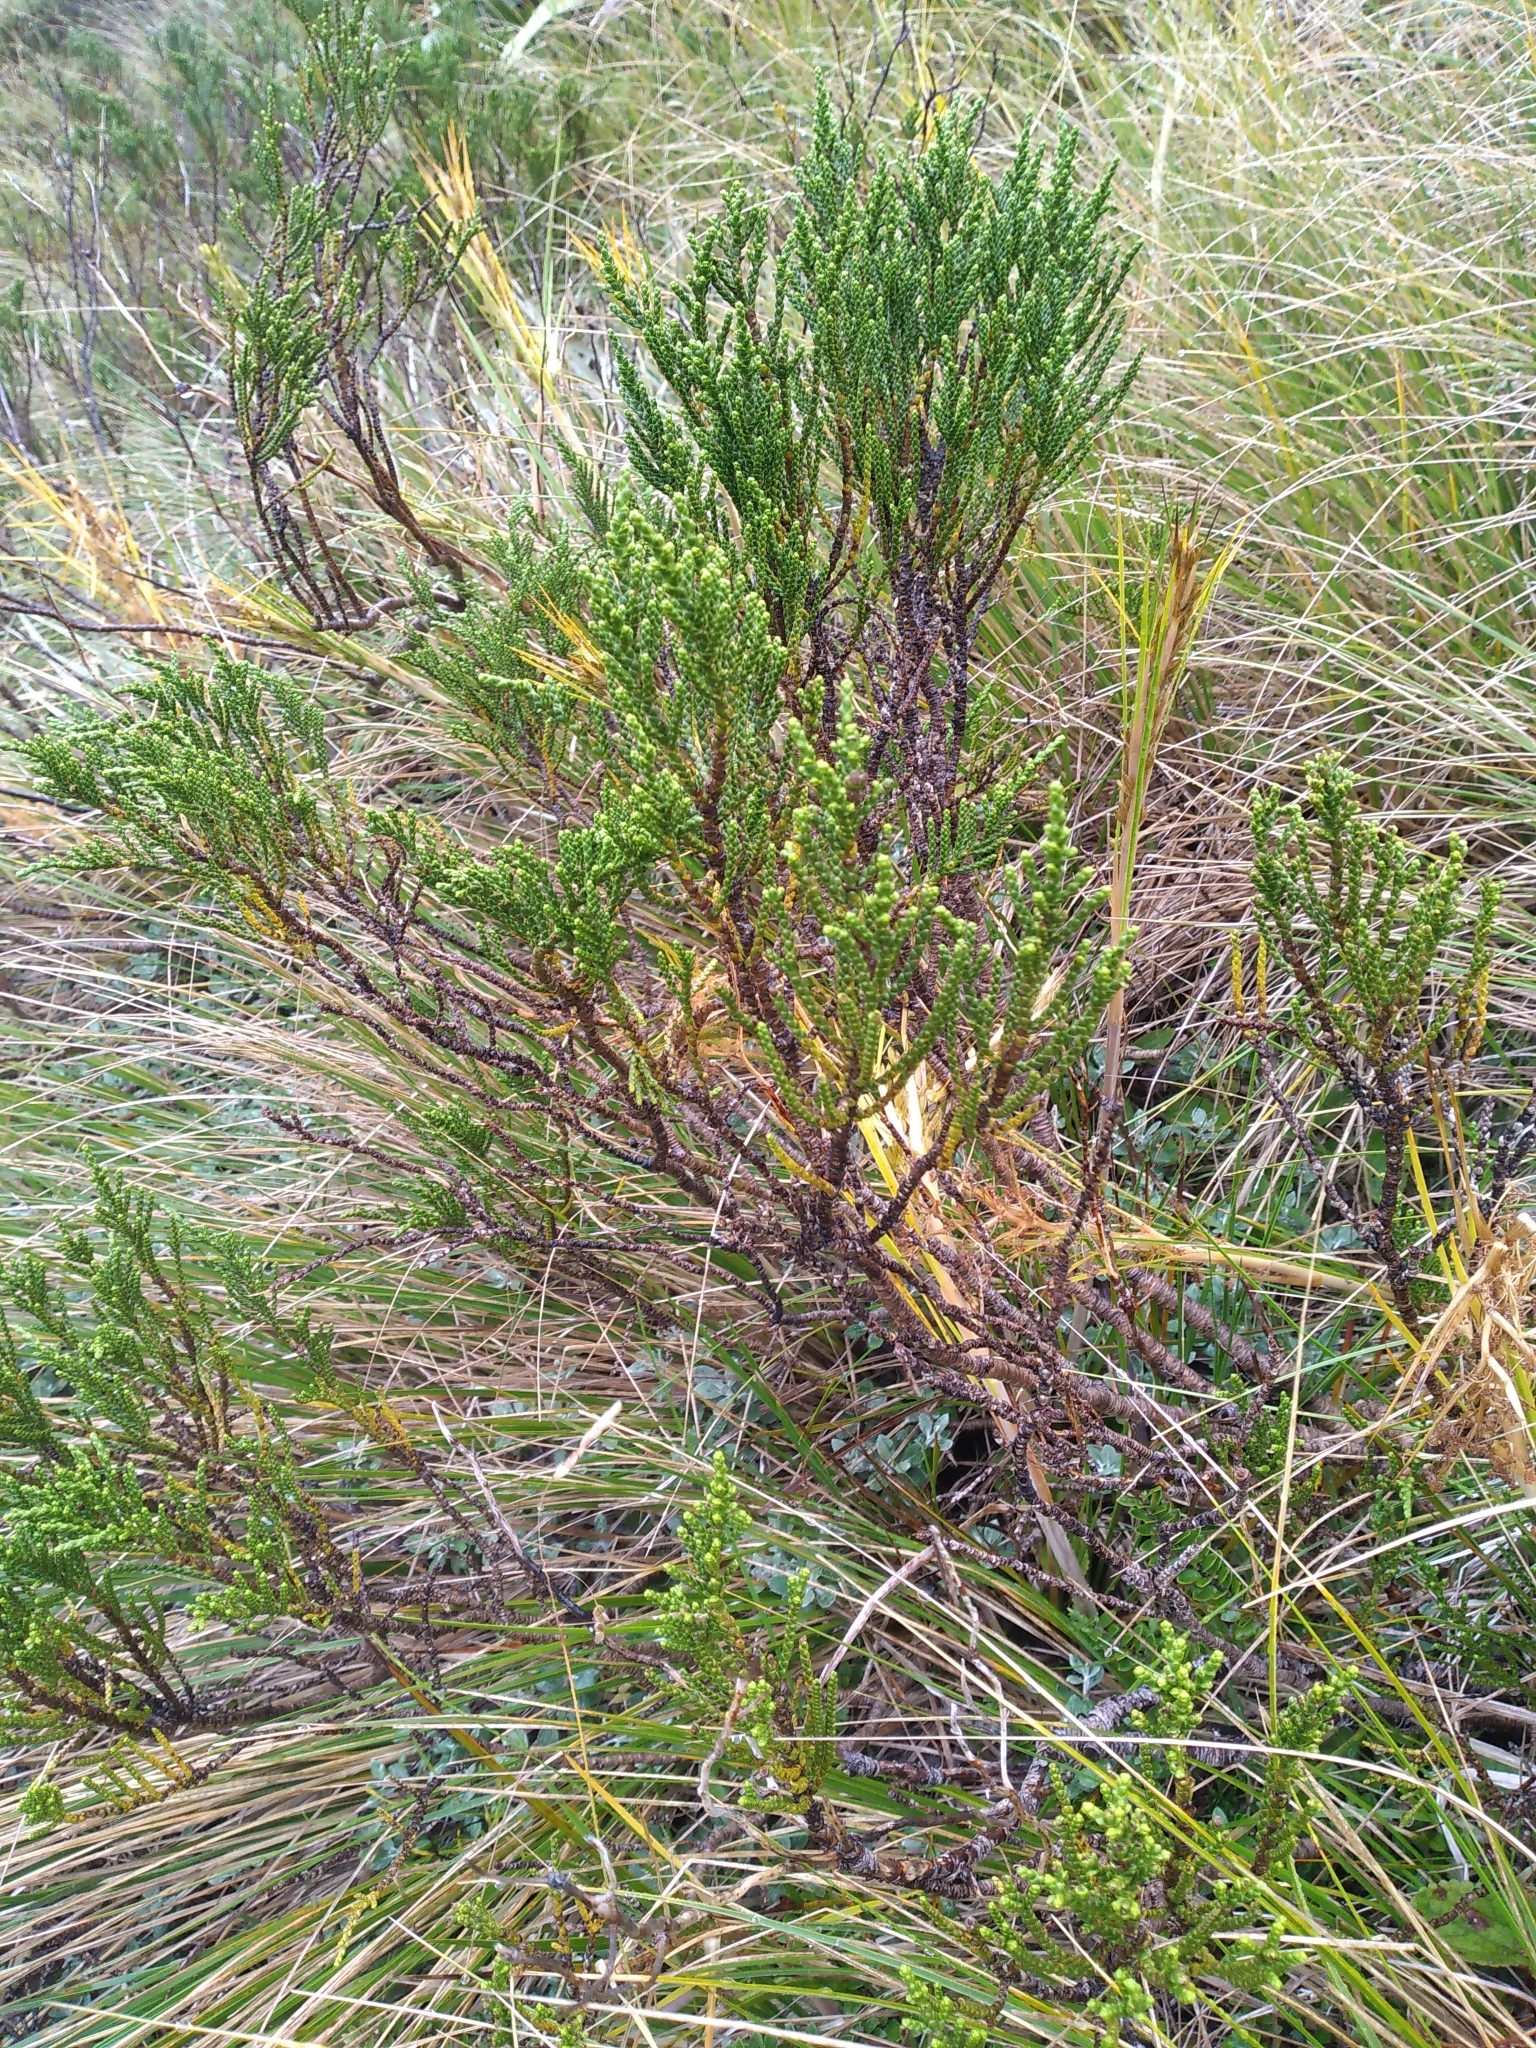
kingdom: Plantae
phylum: Tracheophyta
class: Magnoliopsida
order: Lamiales
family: Plantaginaceae
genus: Veronica
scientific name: Veronica hectorii
